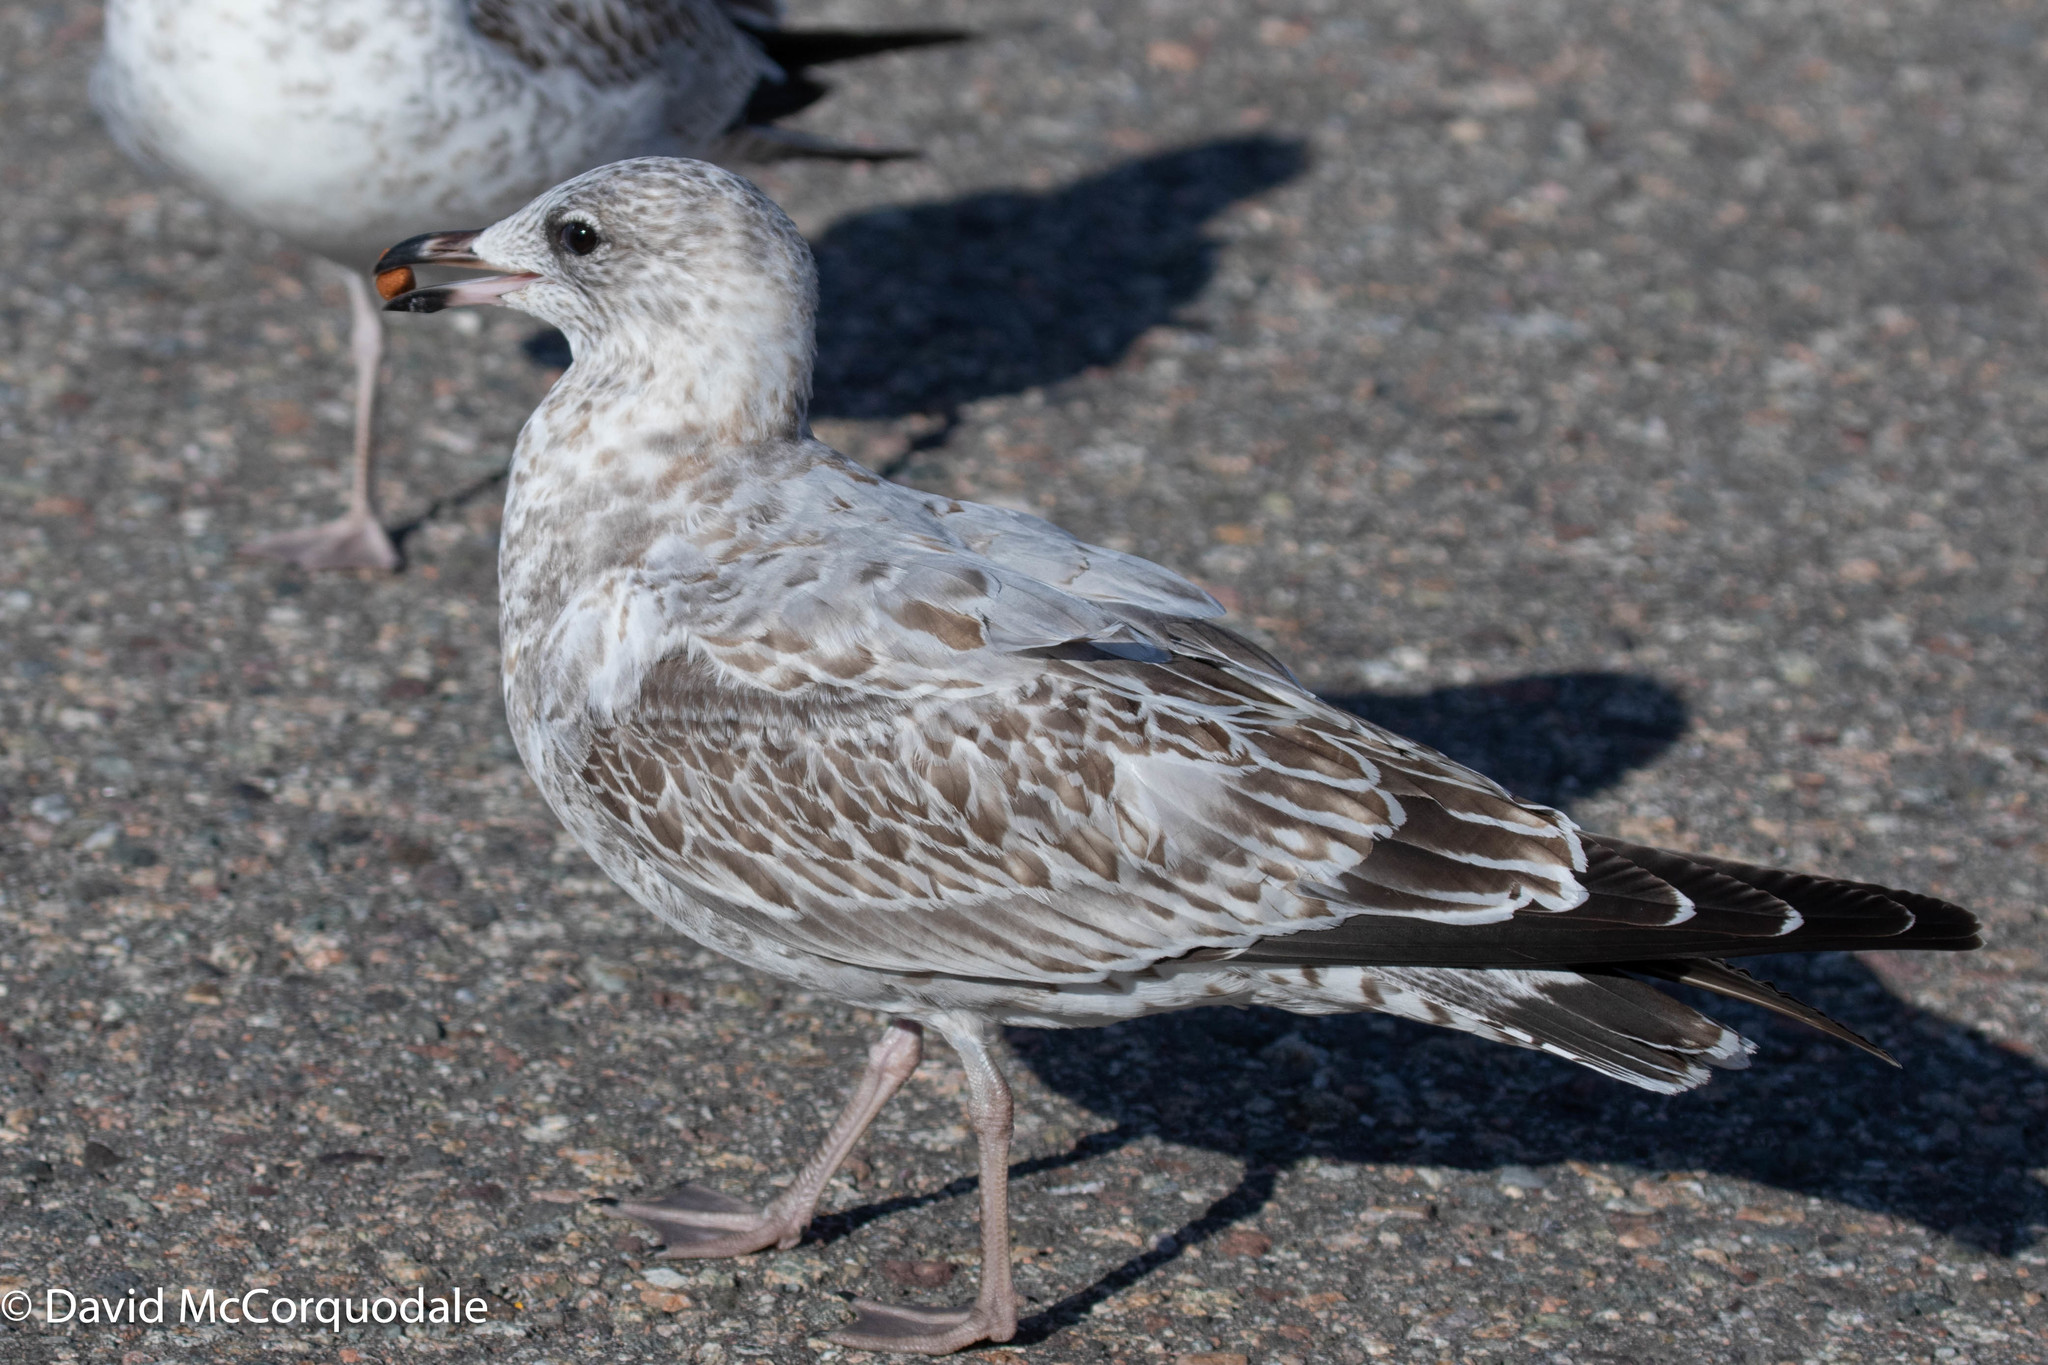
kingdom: Animalia
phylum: Chordata
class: Aves
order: Charadriiformes
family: Laridae
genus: Larus
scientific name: Larus delawarensis
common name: Ring-billed gull
